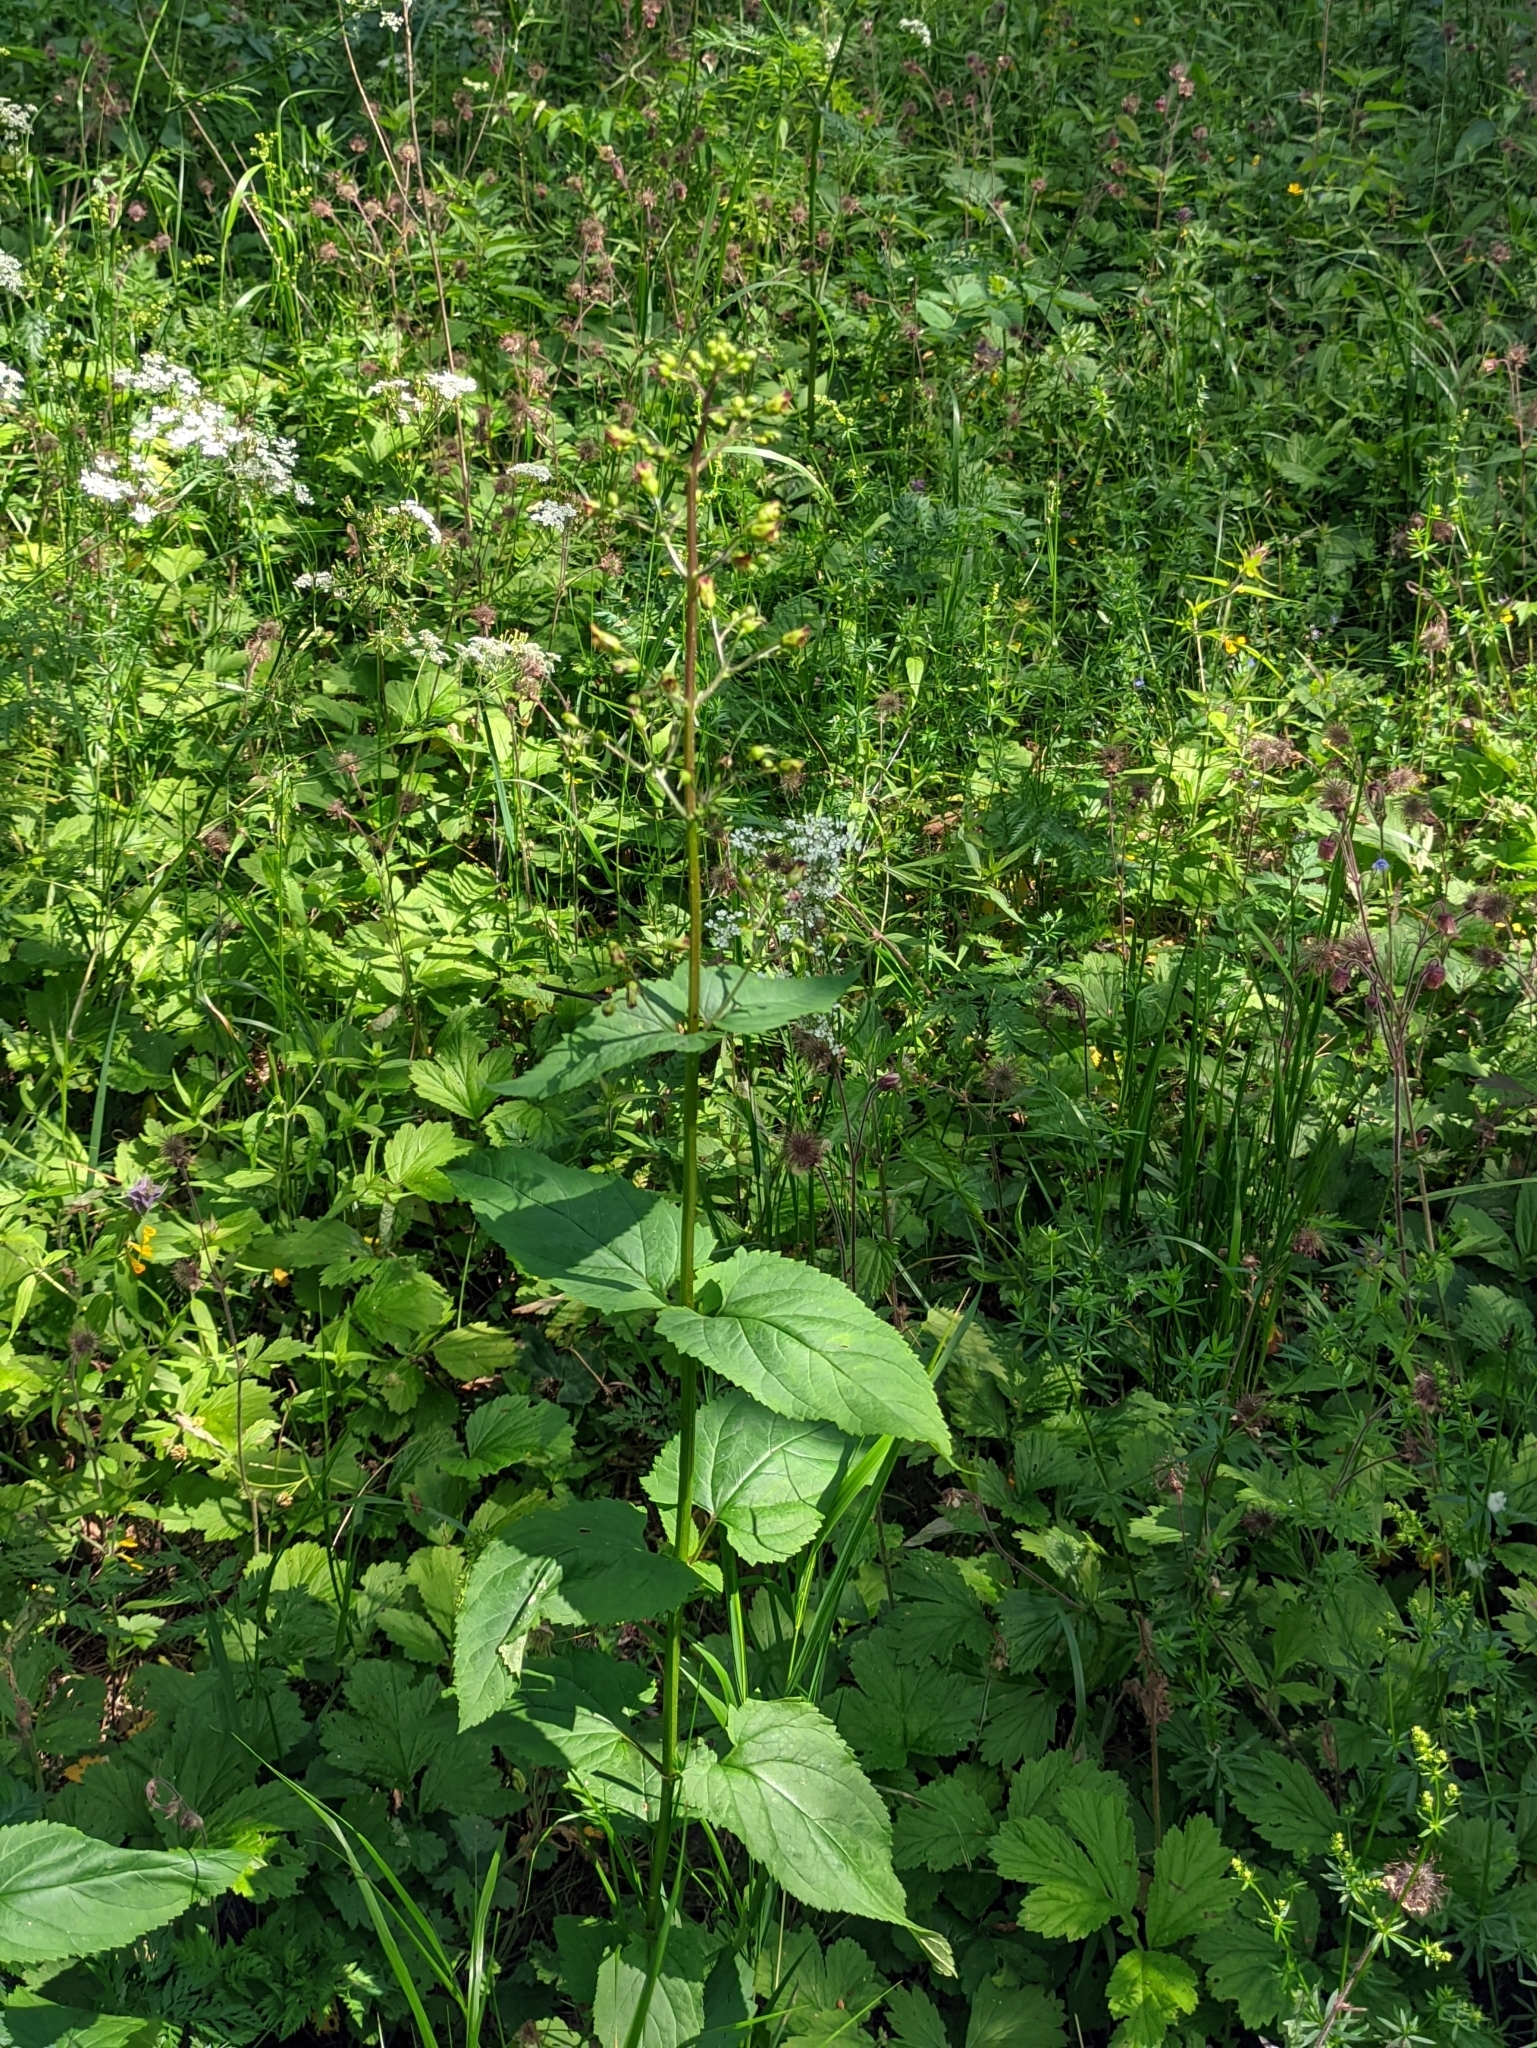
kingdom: Plantae
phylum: Tracheophyta
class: Magnoliopsida
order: Lamiales
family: Scrophulariaceae
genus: Scrophularia
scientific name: Scrophularia nodosa
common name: Common figwort
